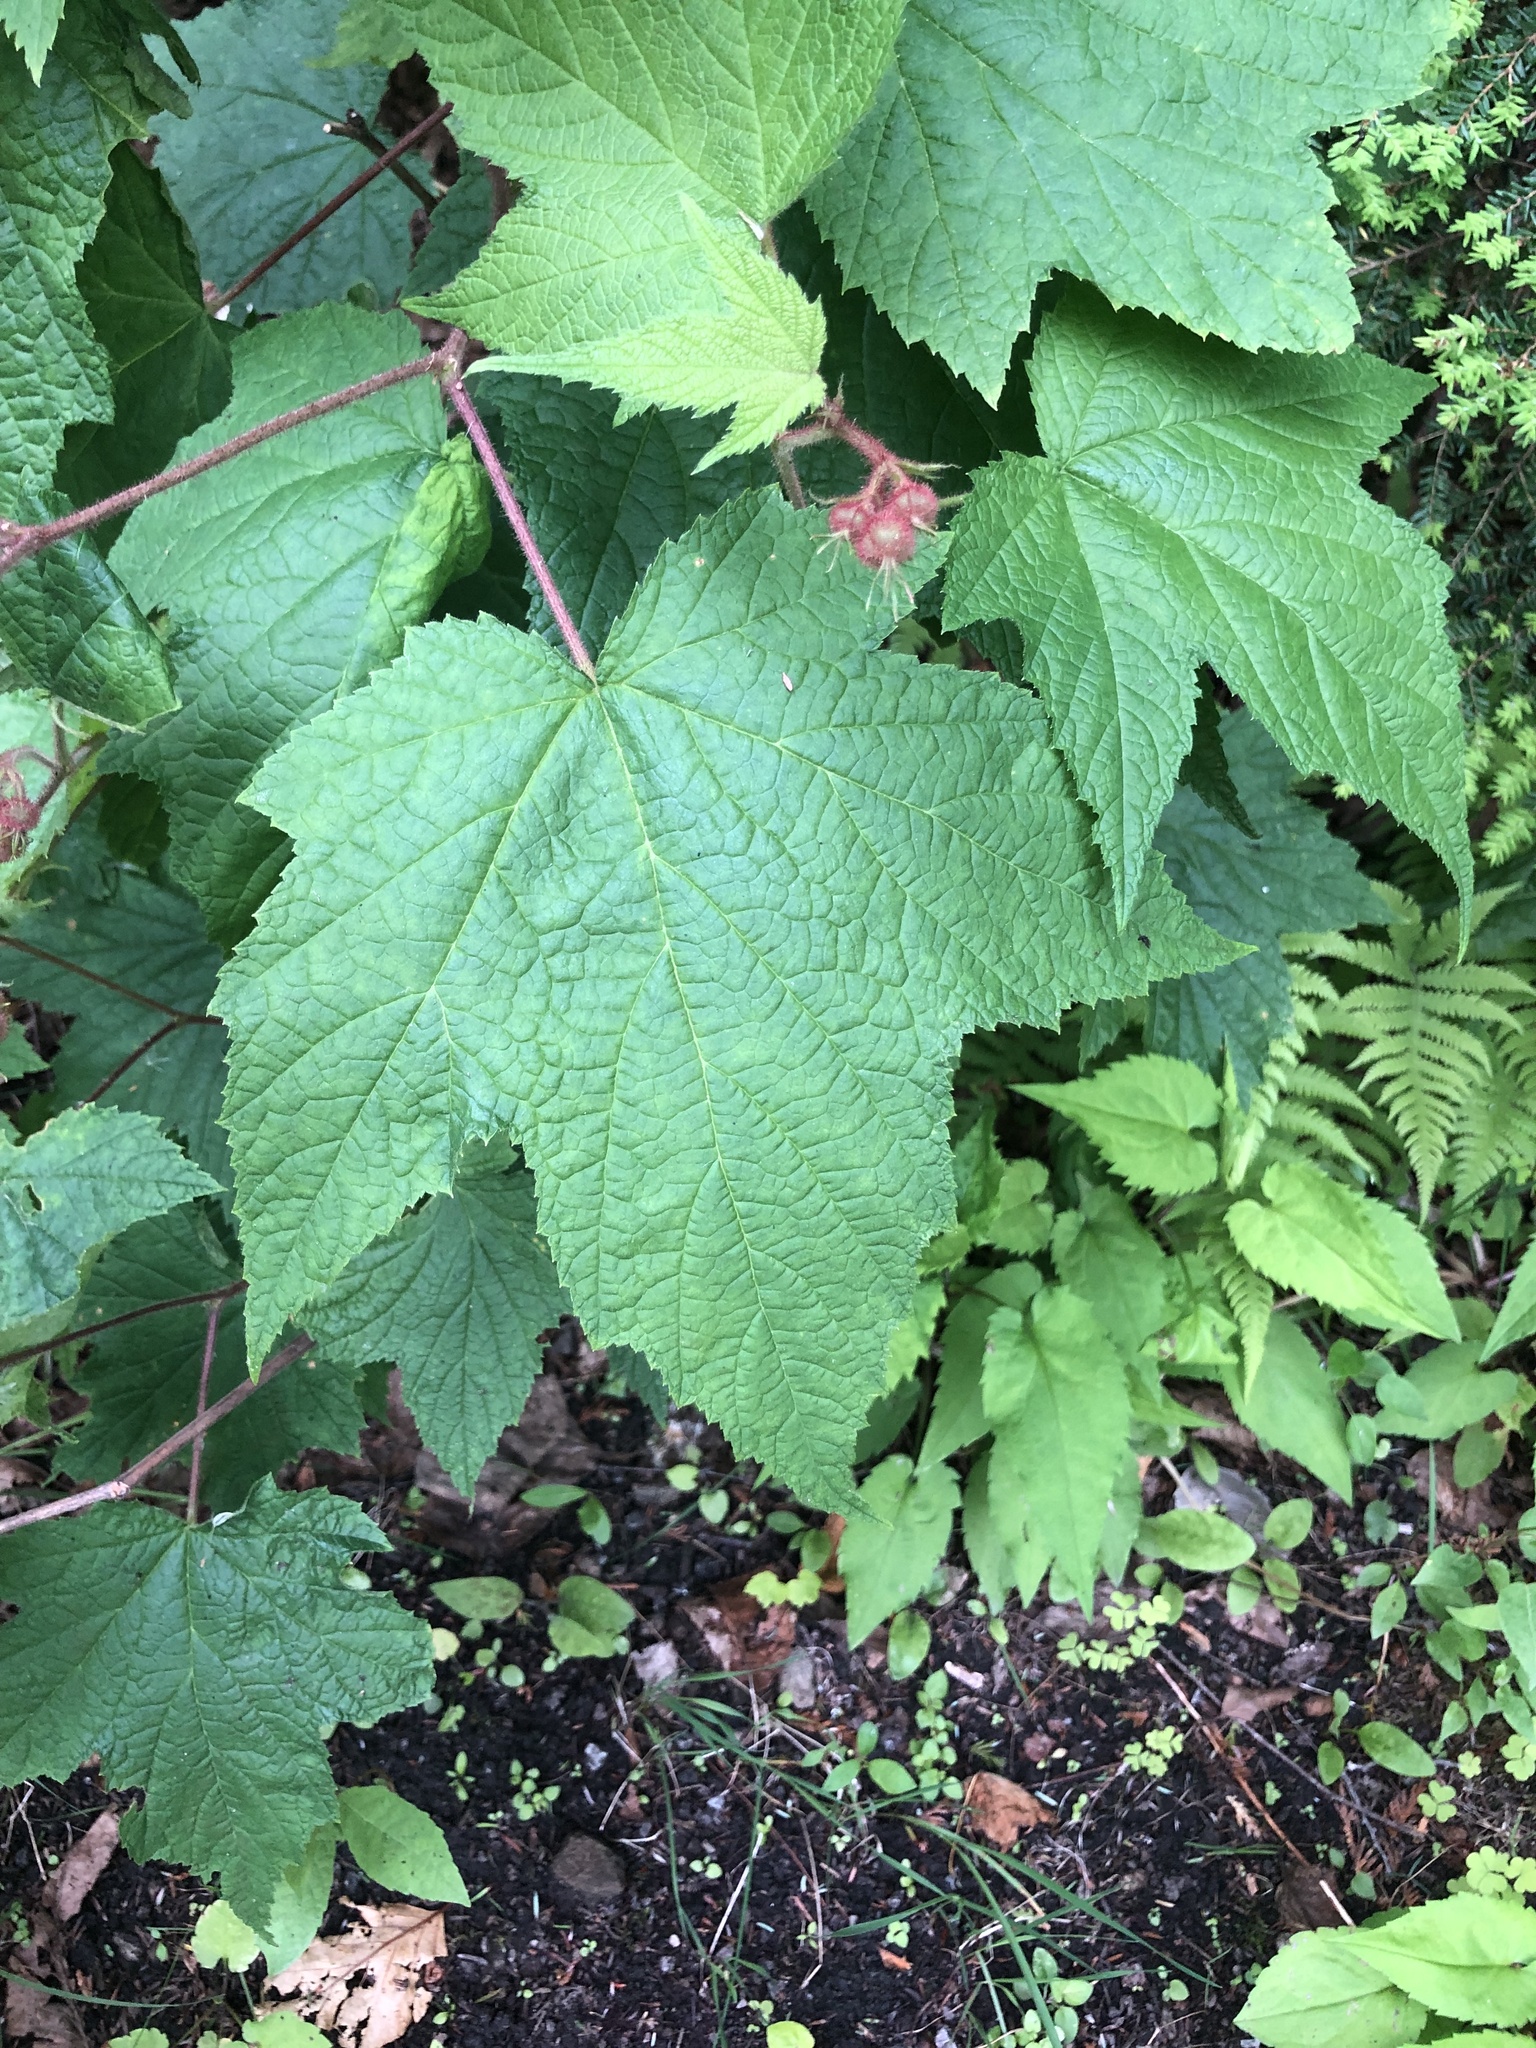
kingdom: Plantae
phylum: Tracheophyta
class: Magnoliopsida
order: Rosales
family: Rosaceae
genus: Rubus
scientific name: Rubus odoratus
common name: Purple-flowered raspberry
